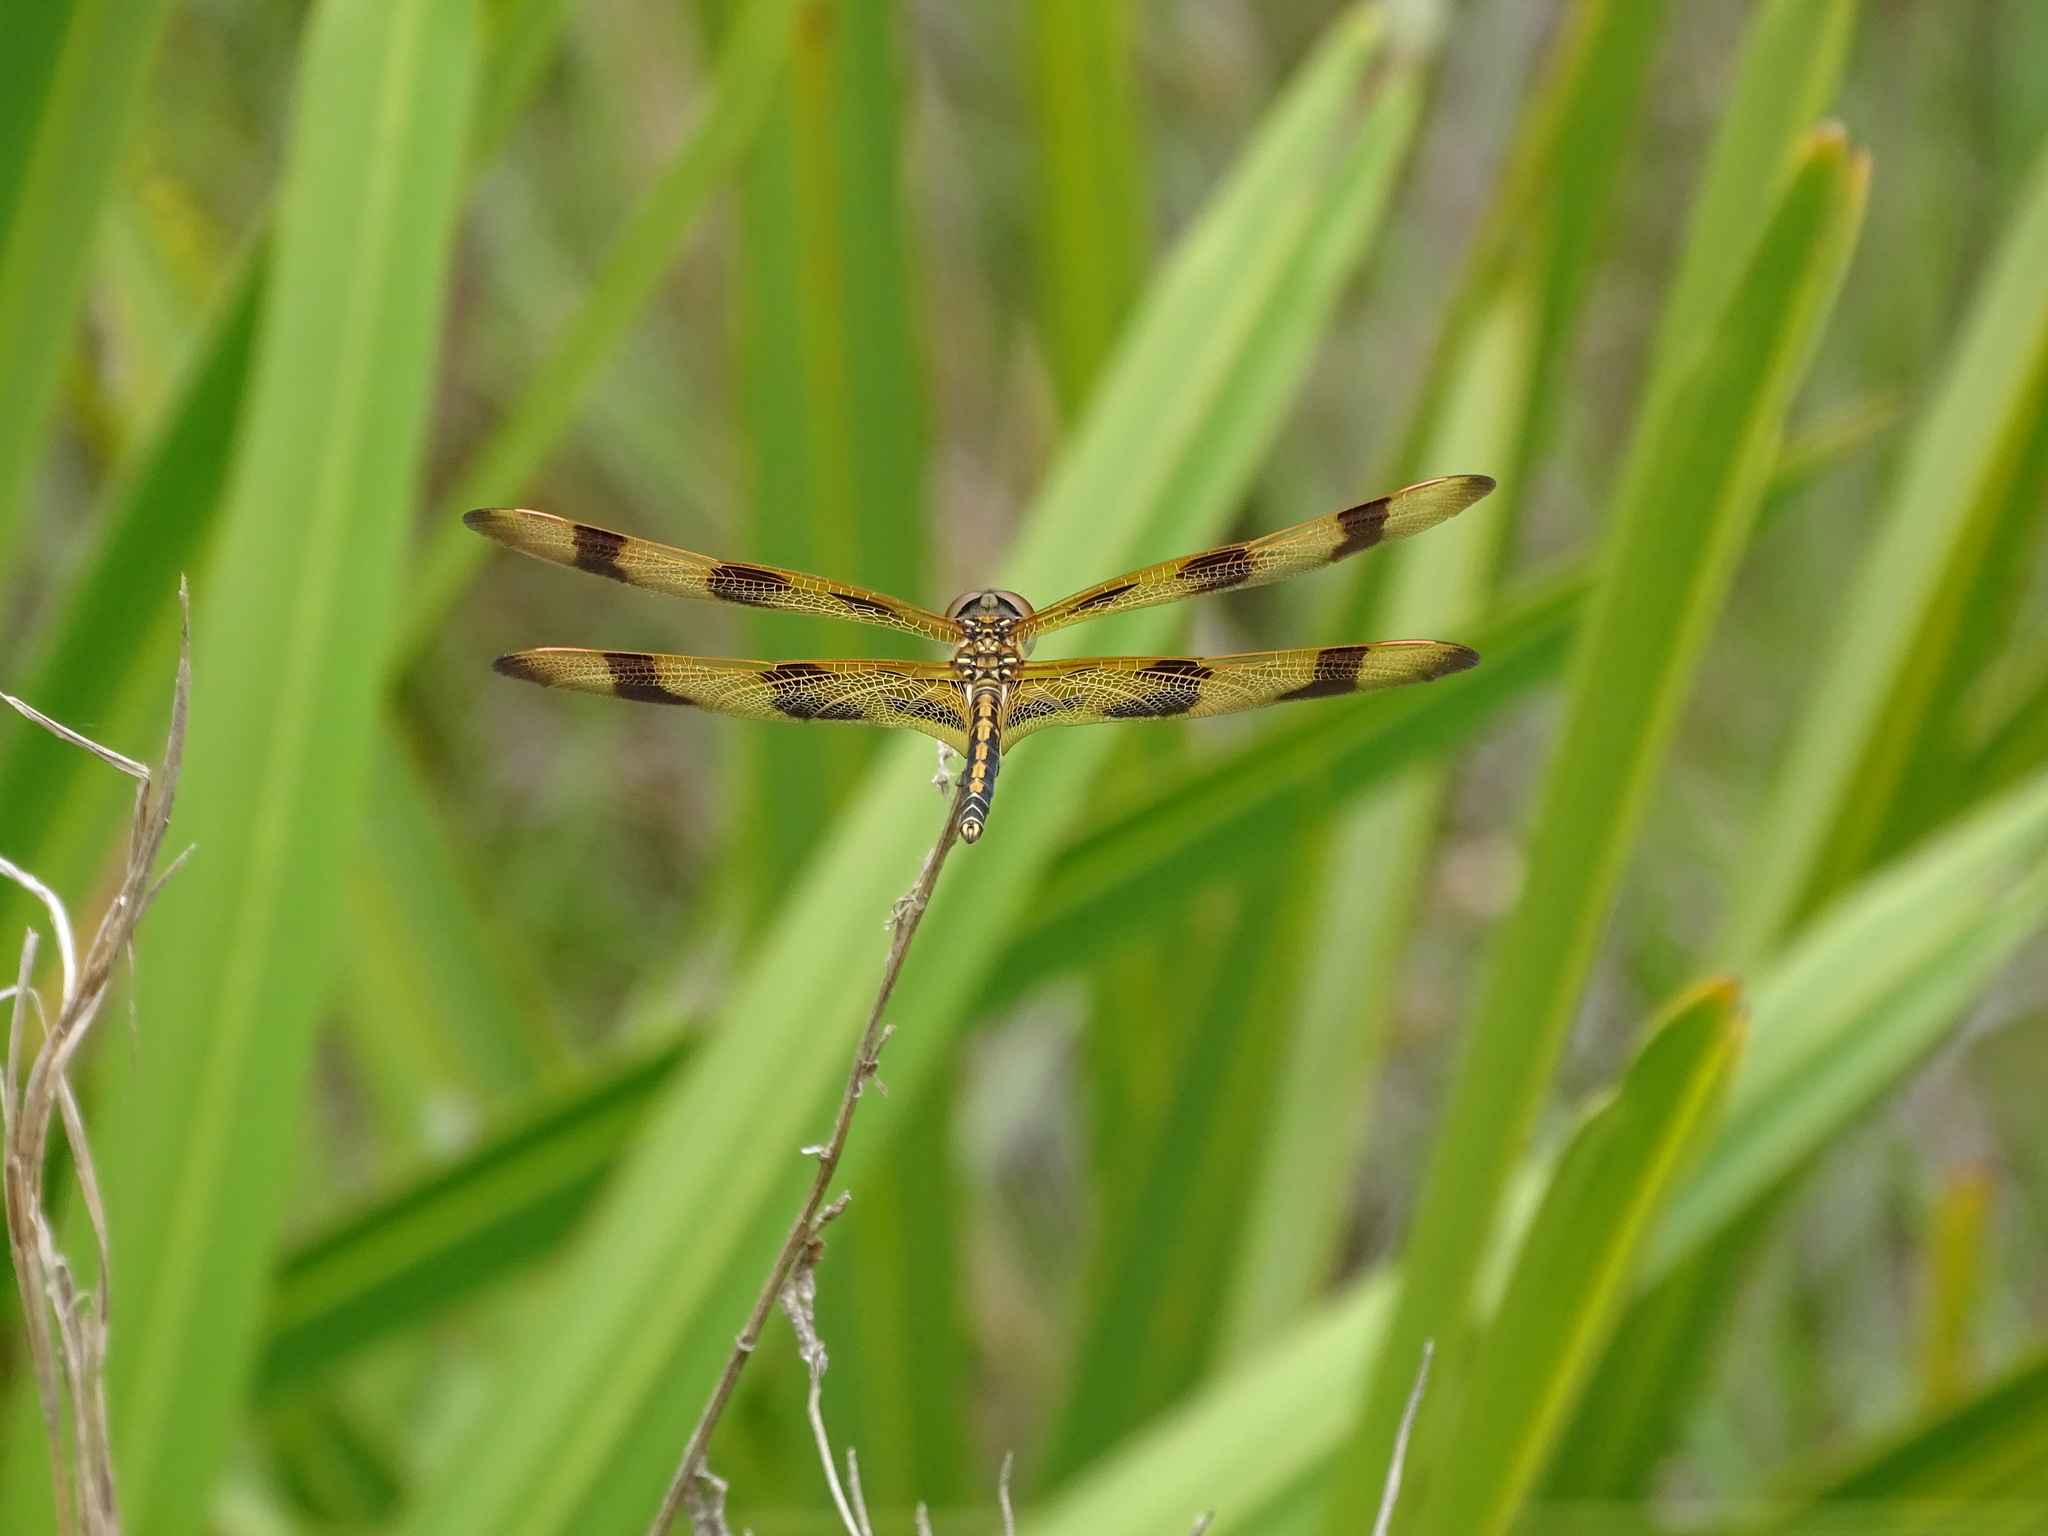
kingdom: Animalia
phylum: Arthropoda
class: Insecta
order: Odonata
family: Libellulidae
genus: Celithemis
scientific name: Celithemis eponina
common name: Halloween pennant
